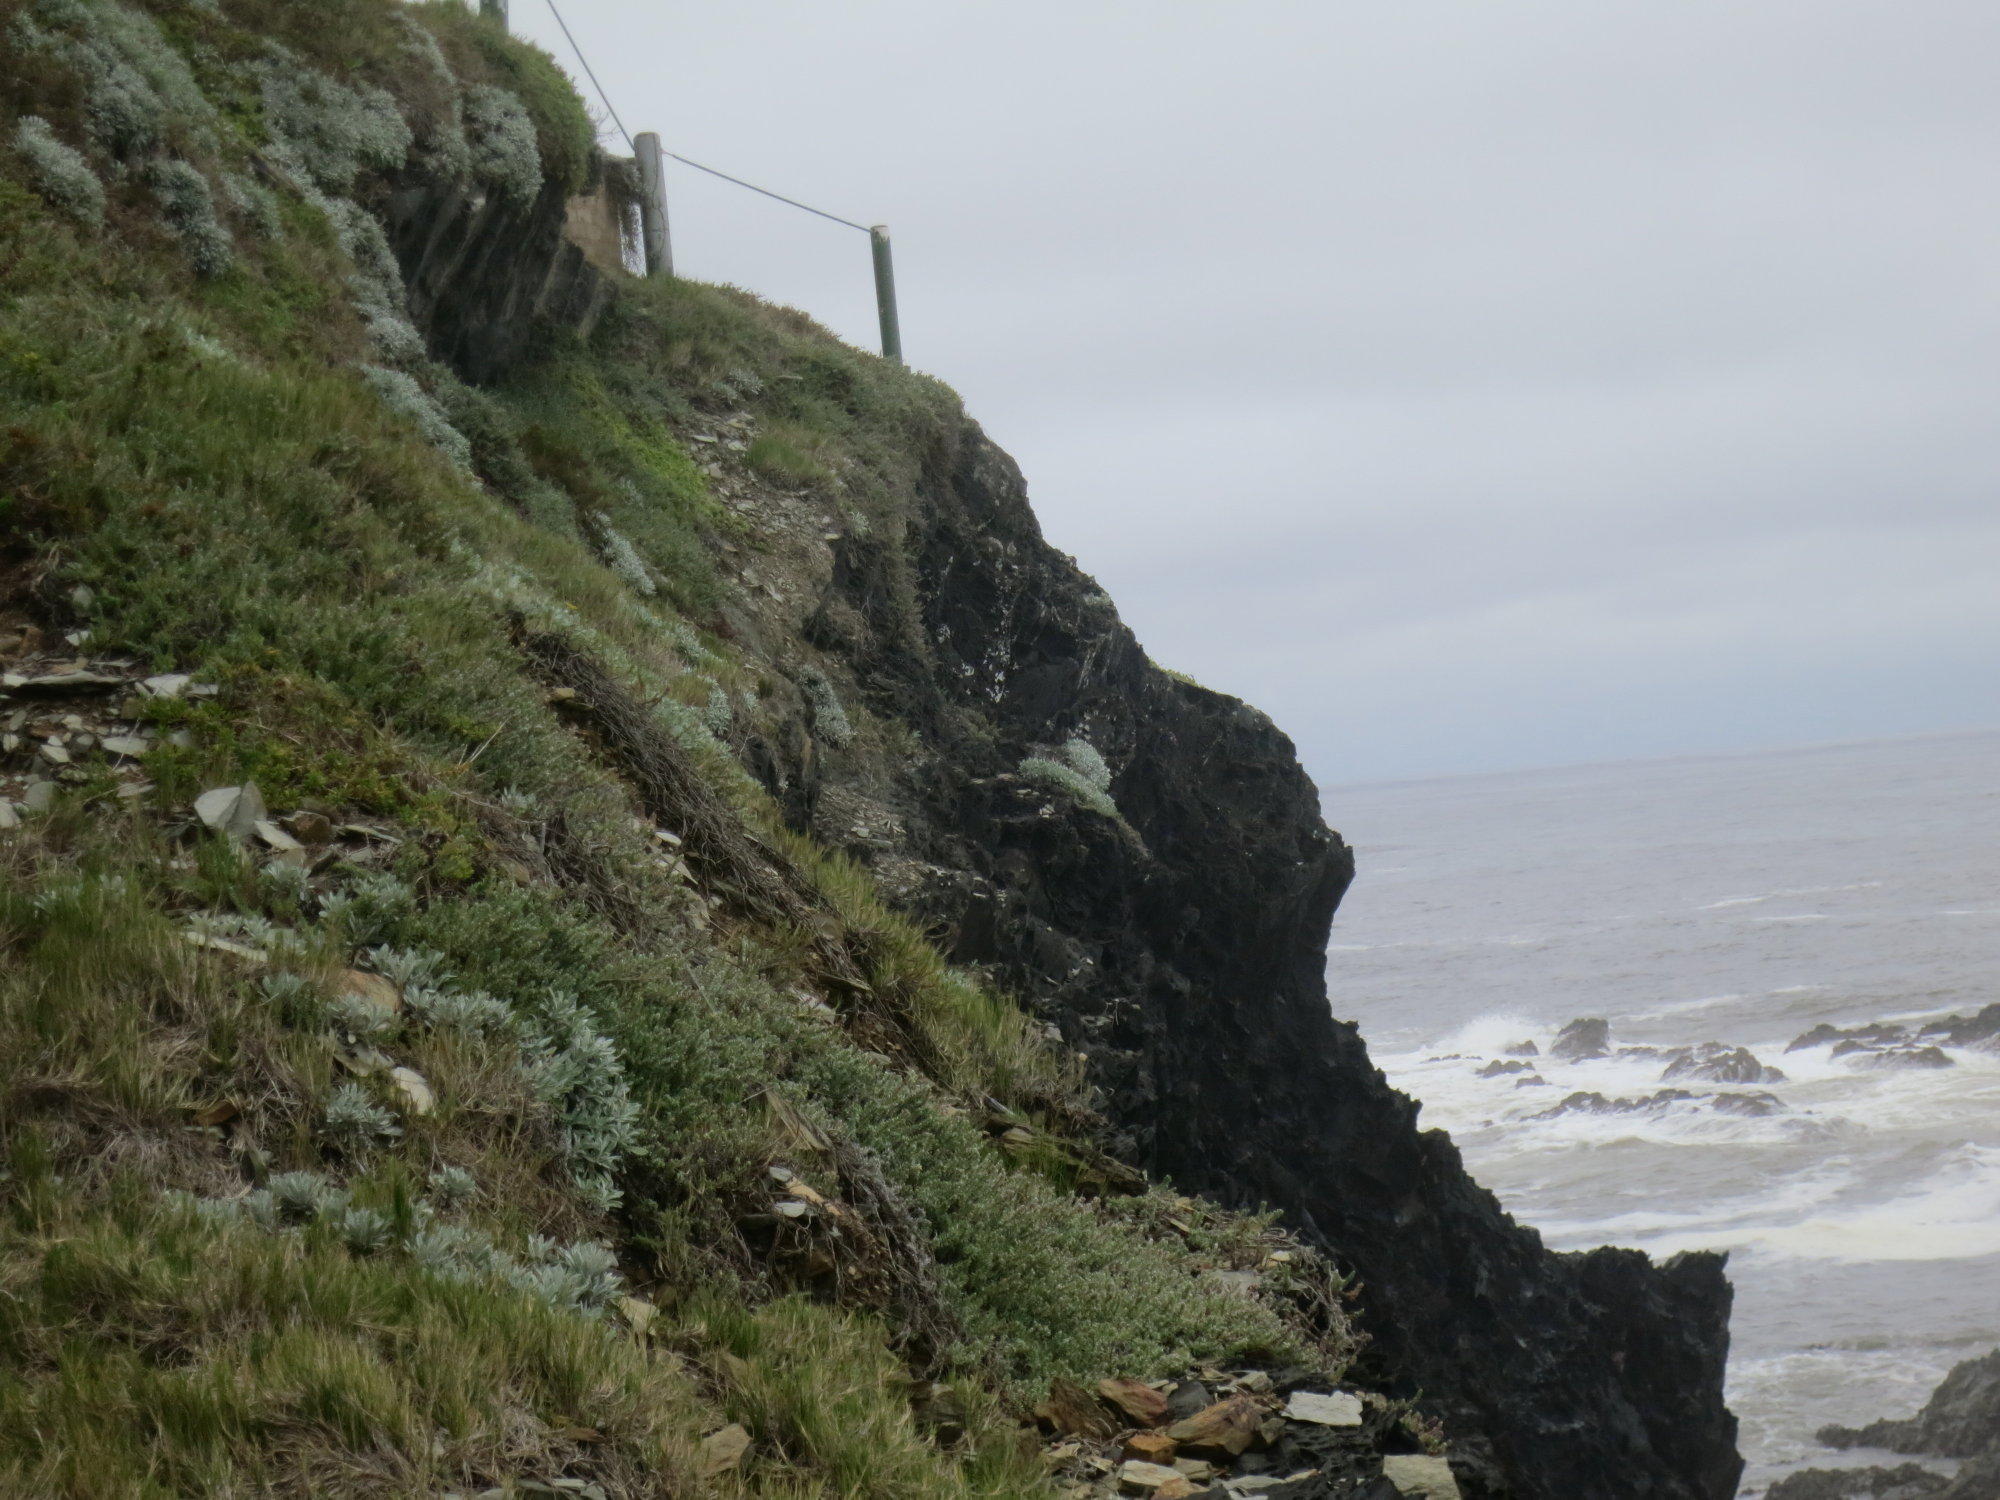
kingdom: Plantae
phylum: Tracheophyta
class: Magnoliopsida
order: Asterales
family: Asteraceae
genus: Gazania
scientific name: Gazania rigens
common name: Treasureflower
